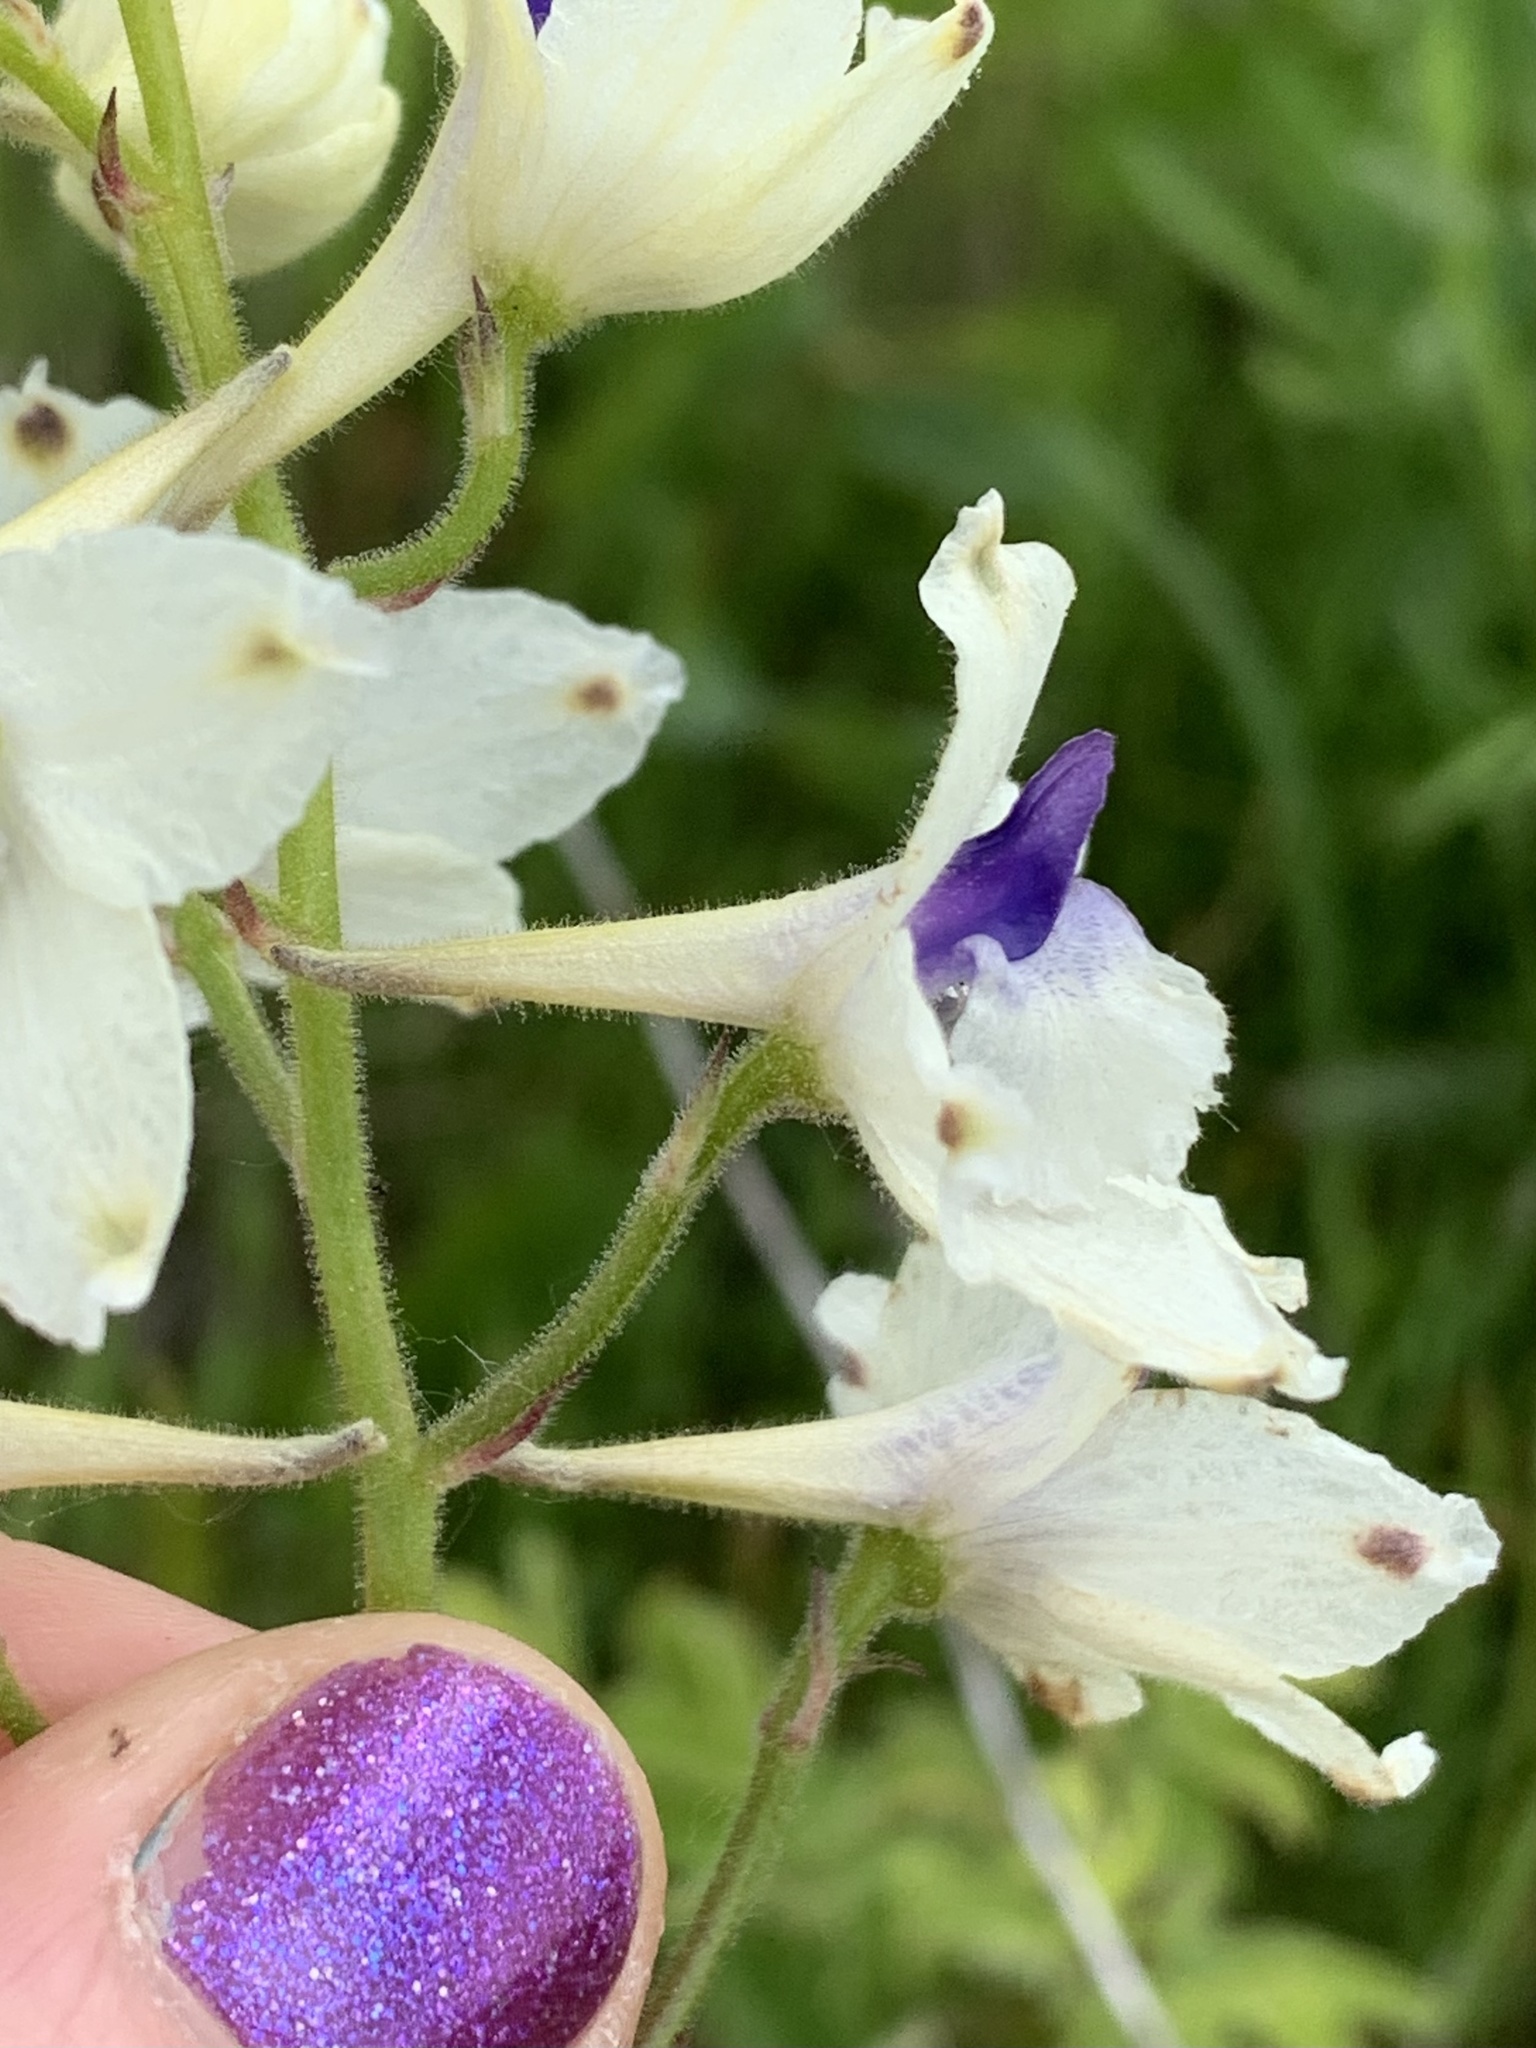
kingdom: Plantae
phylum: Tracheophyta
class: Magnoliopsida
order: Ranunculales
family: Ranunculaceae
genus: Delphinium
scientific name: Delphinium pavonaceum
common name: Peacock larkspur
